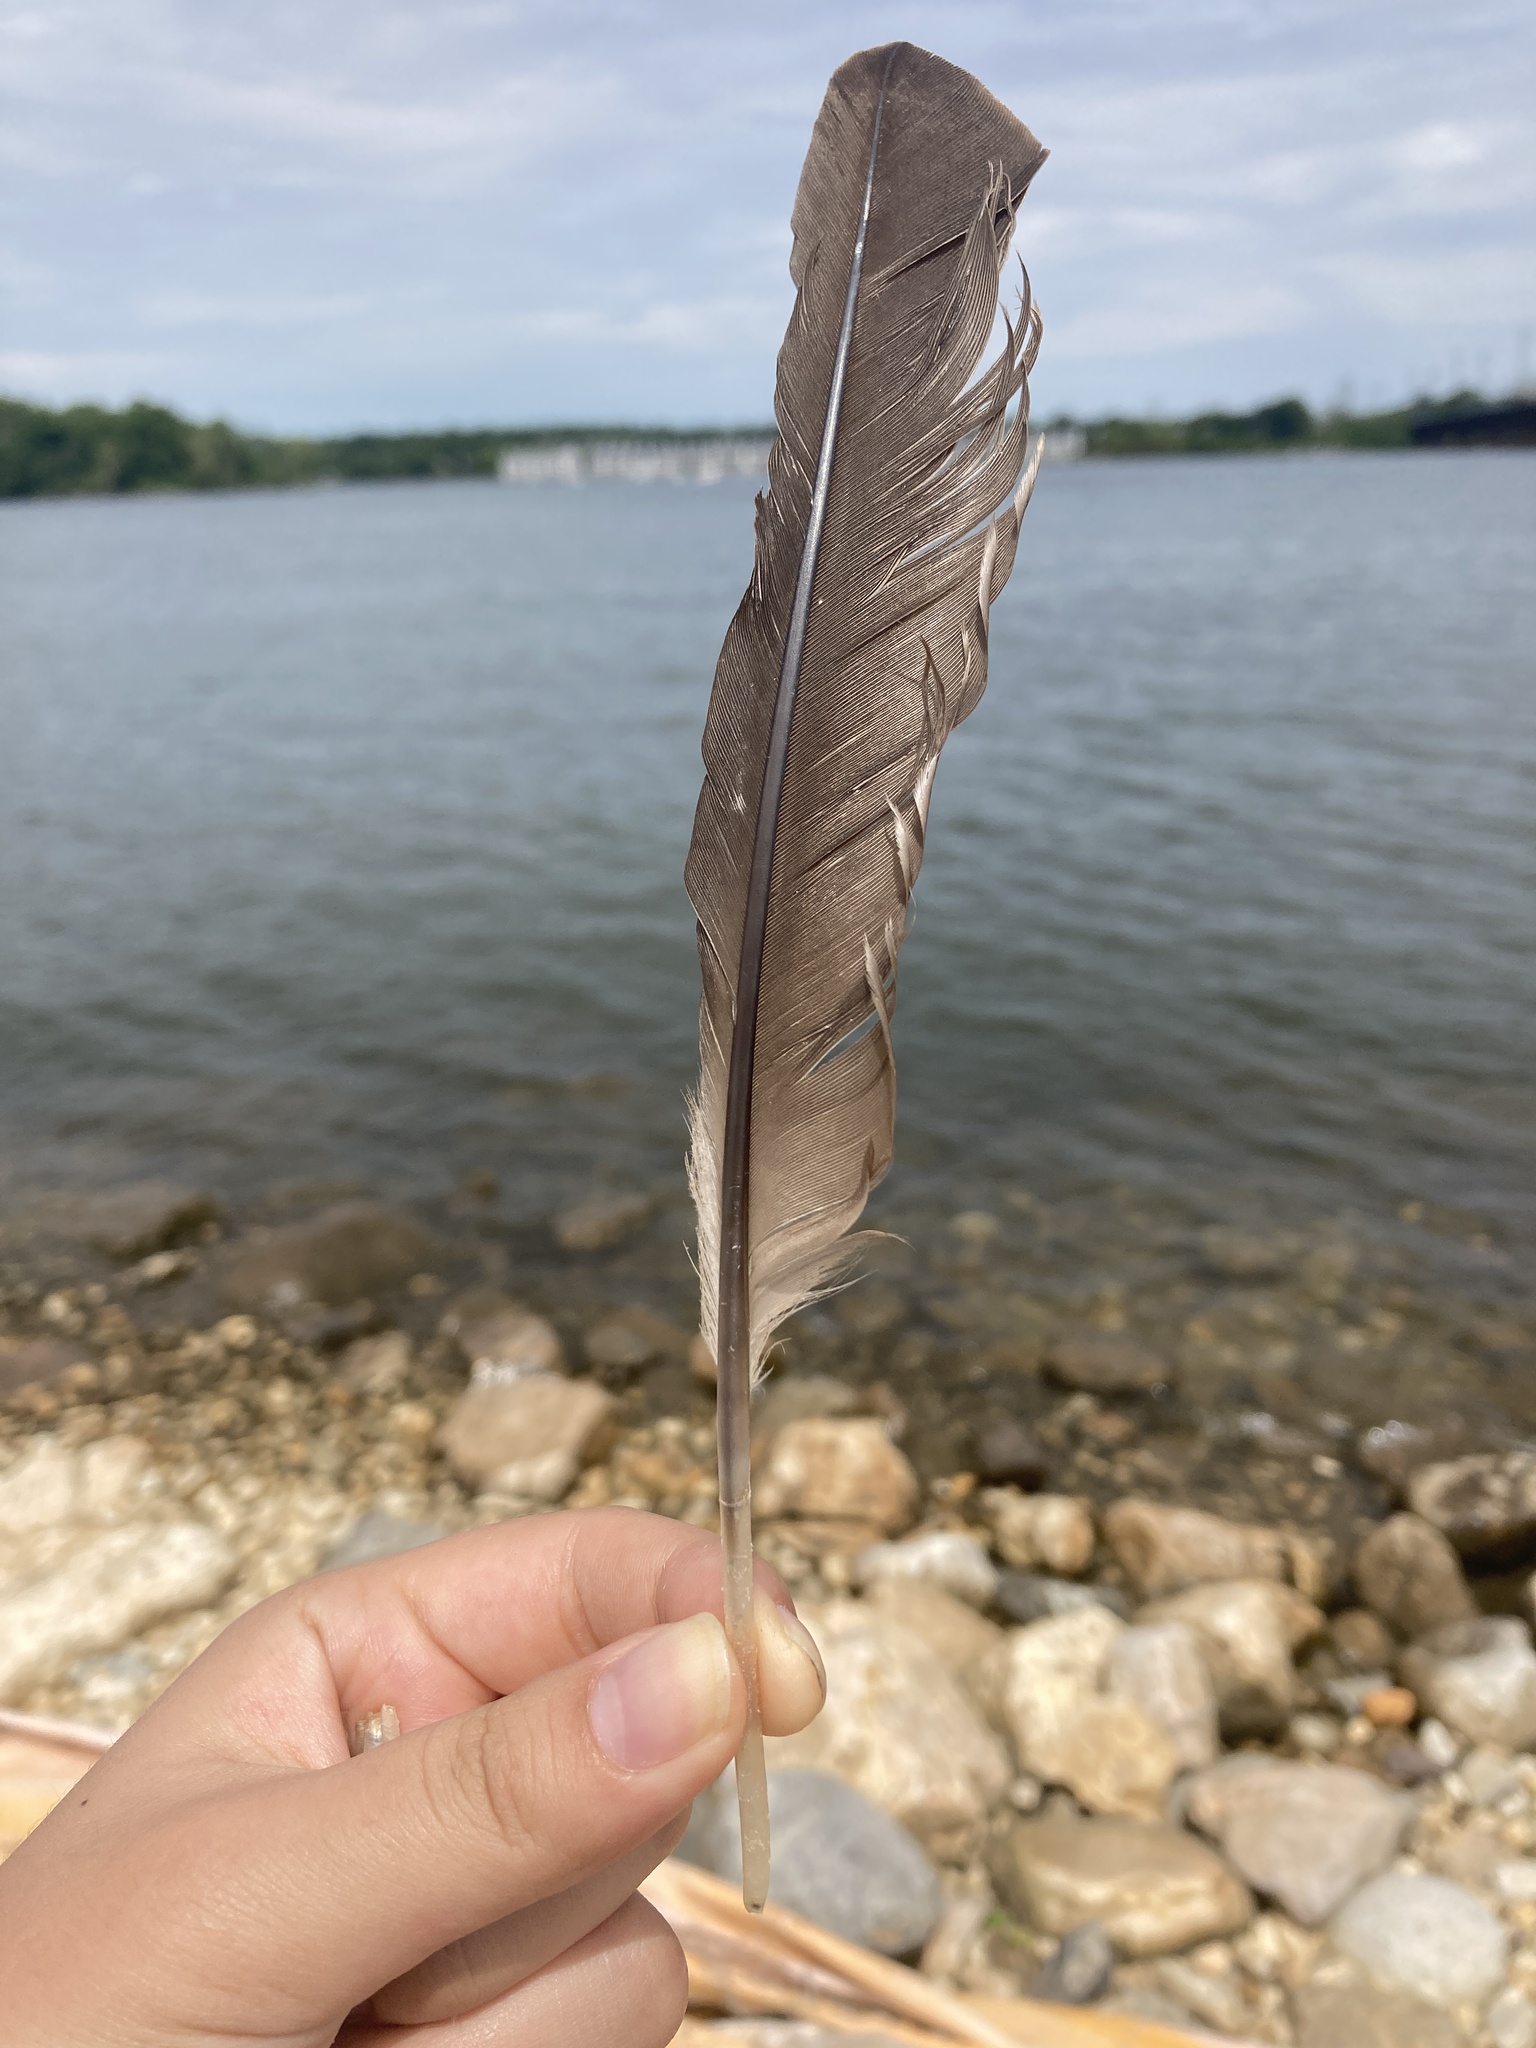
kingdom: Animalia
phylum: Chordata
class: Aves
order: Suliformes
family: Phalacrocoracidae
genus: Phalacrocorax
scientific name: Phalacrocorax auritus
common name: Double-crested cormorant
